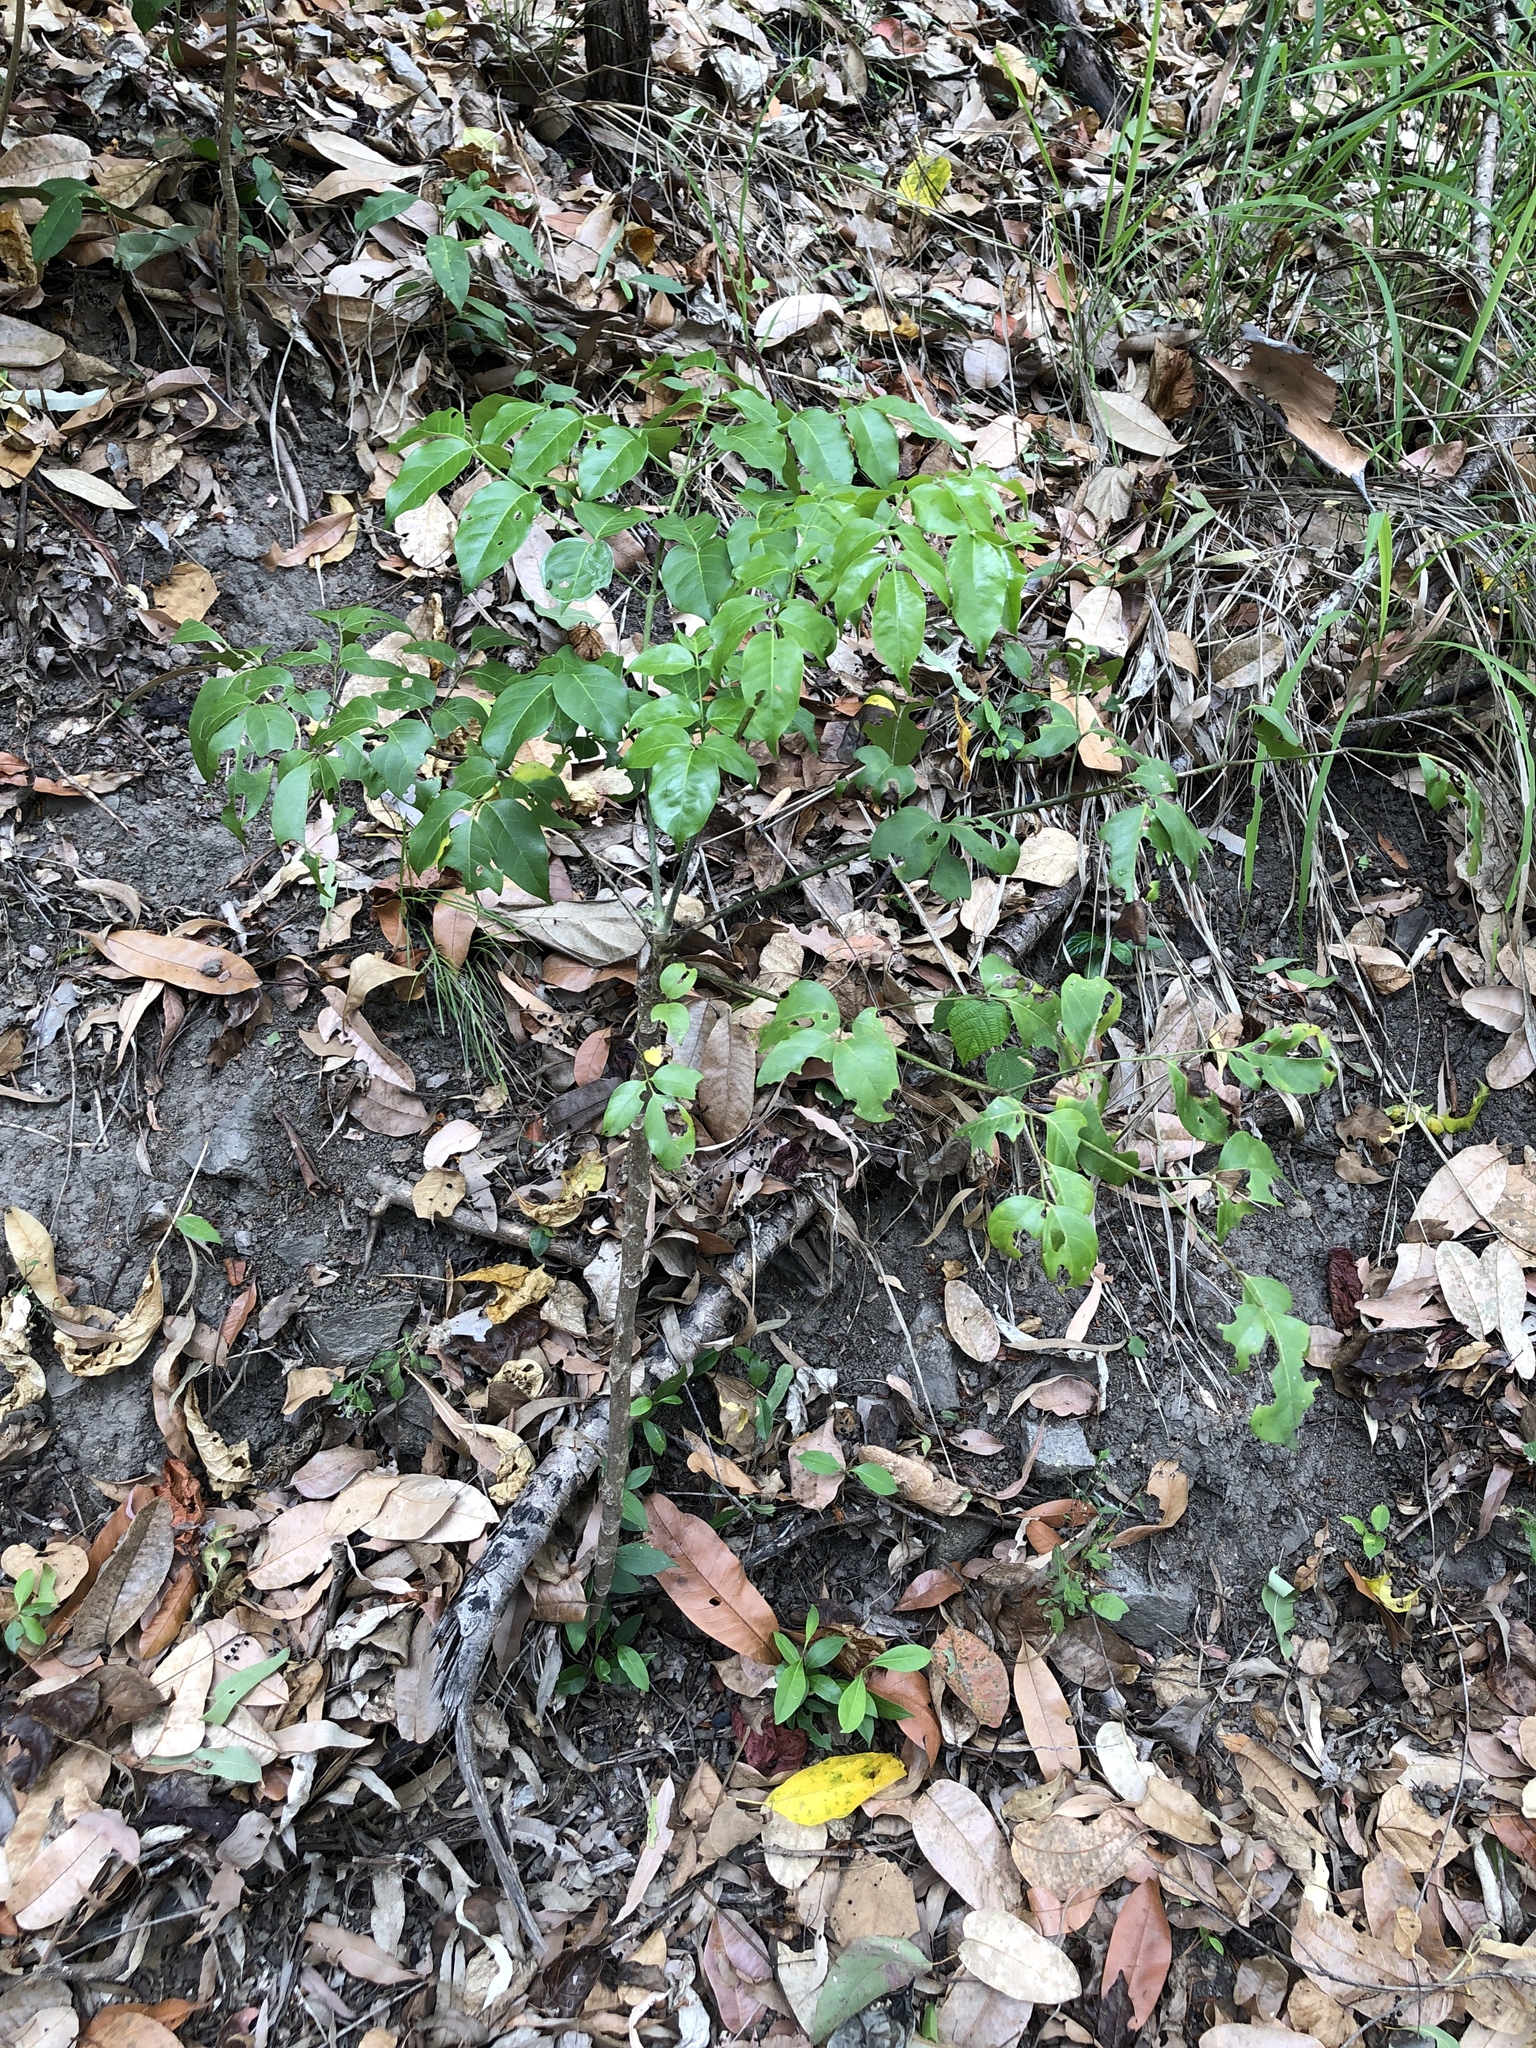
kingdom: Plantae
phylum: Tracheophyta
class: Magnoliopsida
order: Apiales
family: Araliaceae
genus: Polyscias
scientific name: Polyscias elegans
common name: Mowbulan whitewood
